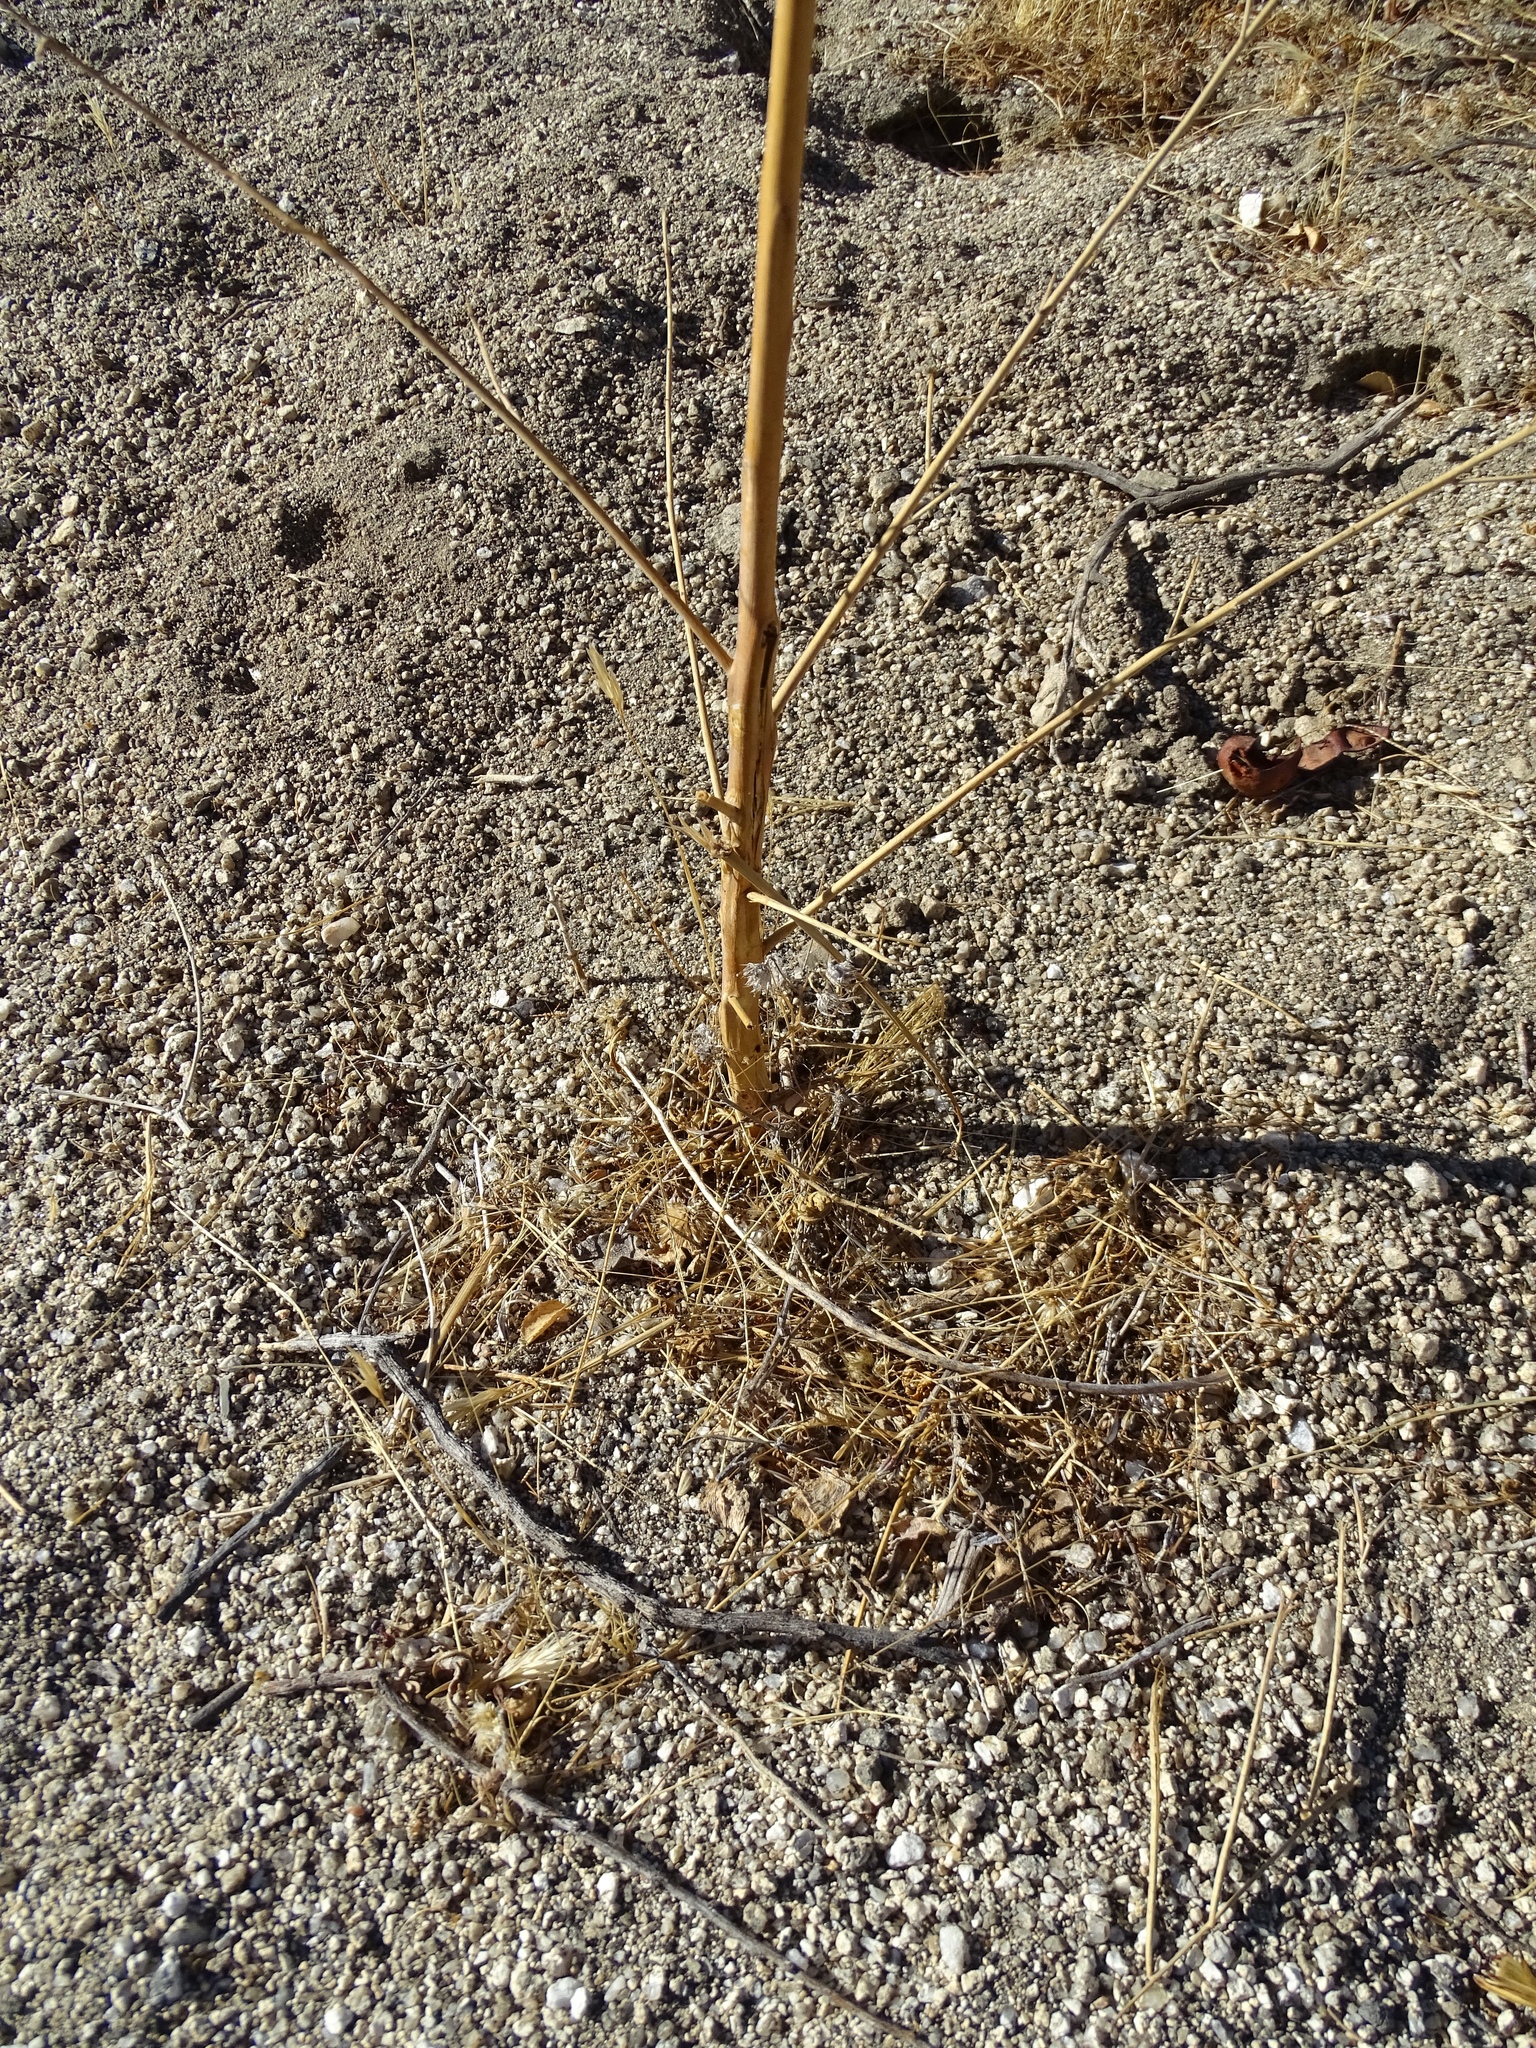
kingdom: Plantae
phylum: Tracheophyta
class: Magnoliopsida
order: Myrtales
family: Onagraceae
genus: Eulobus
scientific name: Eulobus californicus
